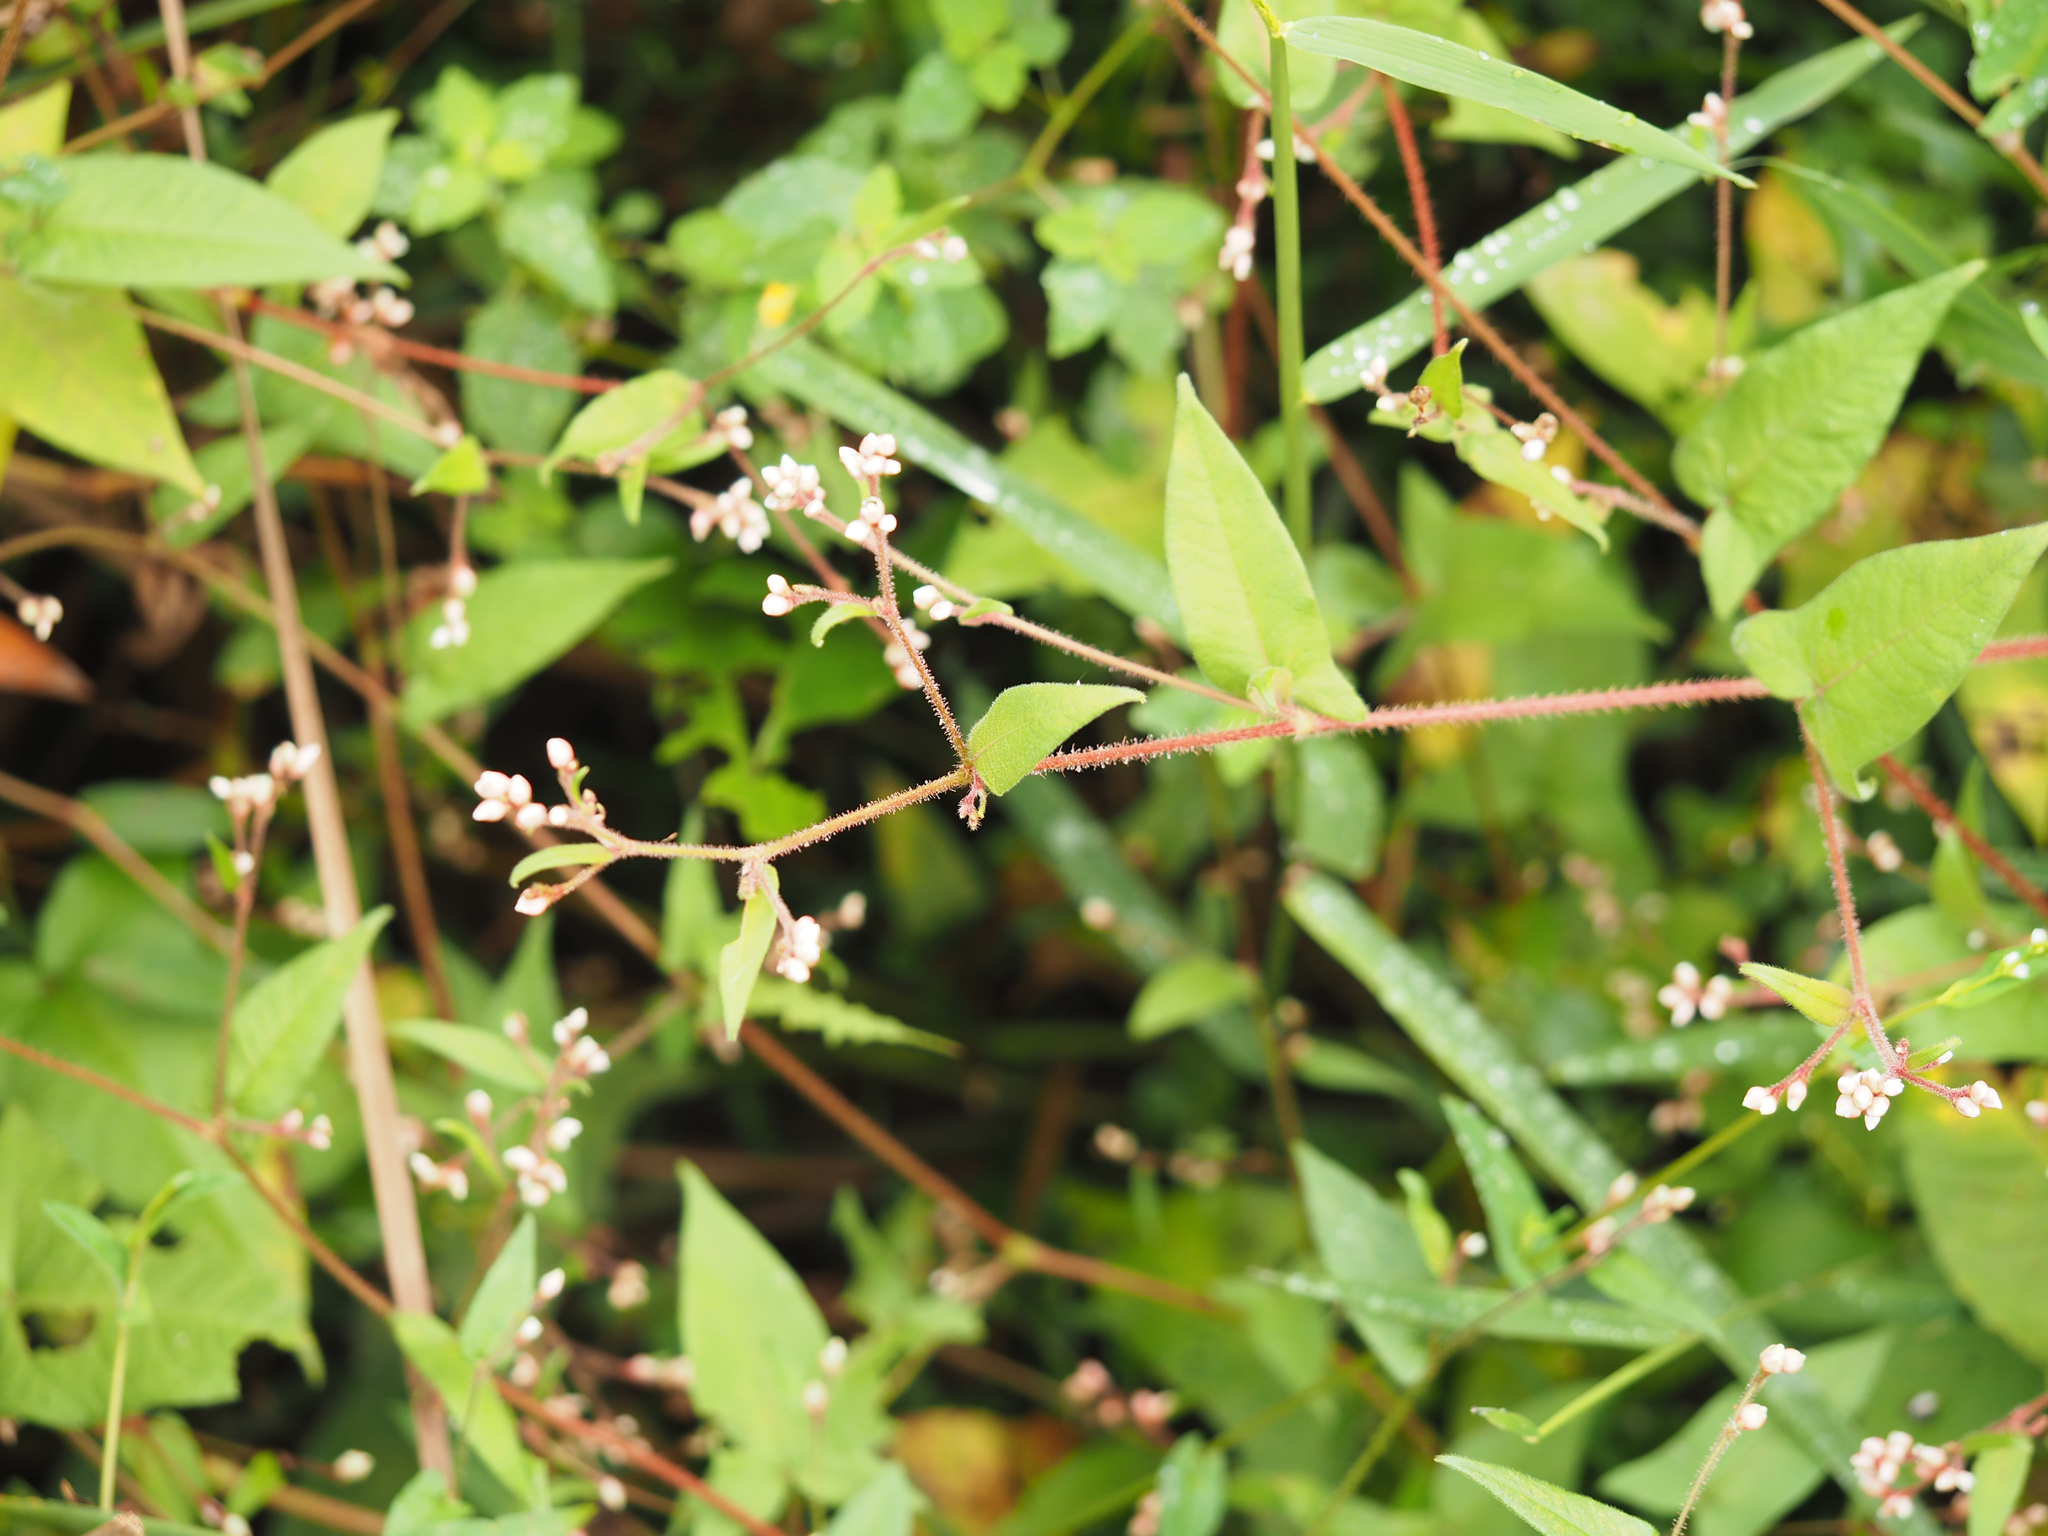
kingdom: Plantae
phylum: Tracheophyta
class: Magnoliopsida
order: Caryophyllales
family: Polygonaceae
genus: Persicaria
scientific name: Persicaria arifolia
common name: Halberd-leaved tear-thumb
